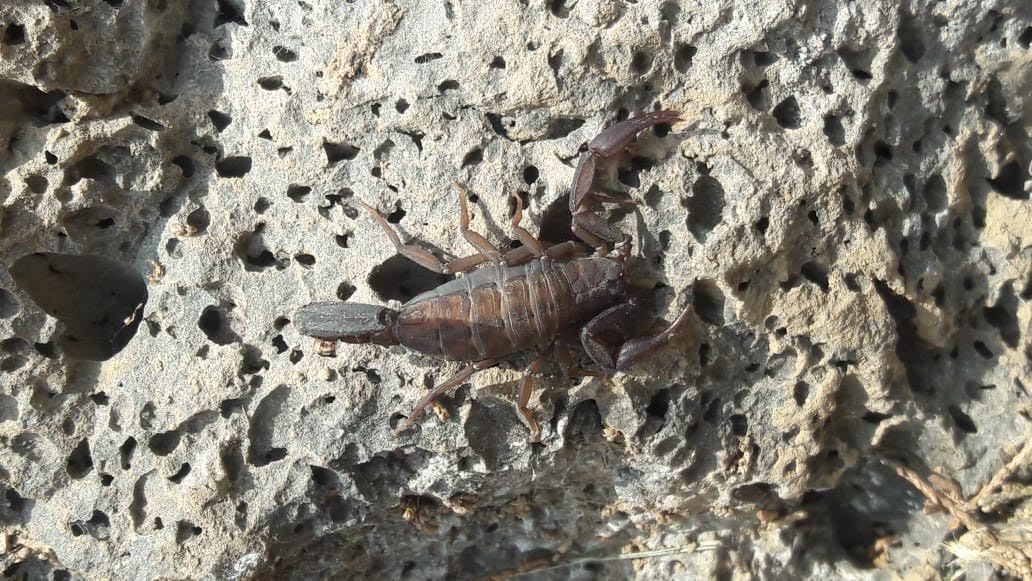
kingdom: Animalia
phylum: Arthropoda
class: Arachnida
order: Scorpiones
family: Vaejovidae
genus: Vaejovis
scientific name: Vaejovis mexicanus
